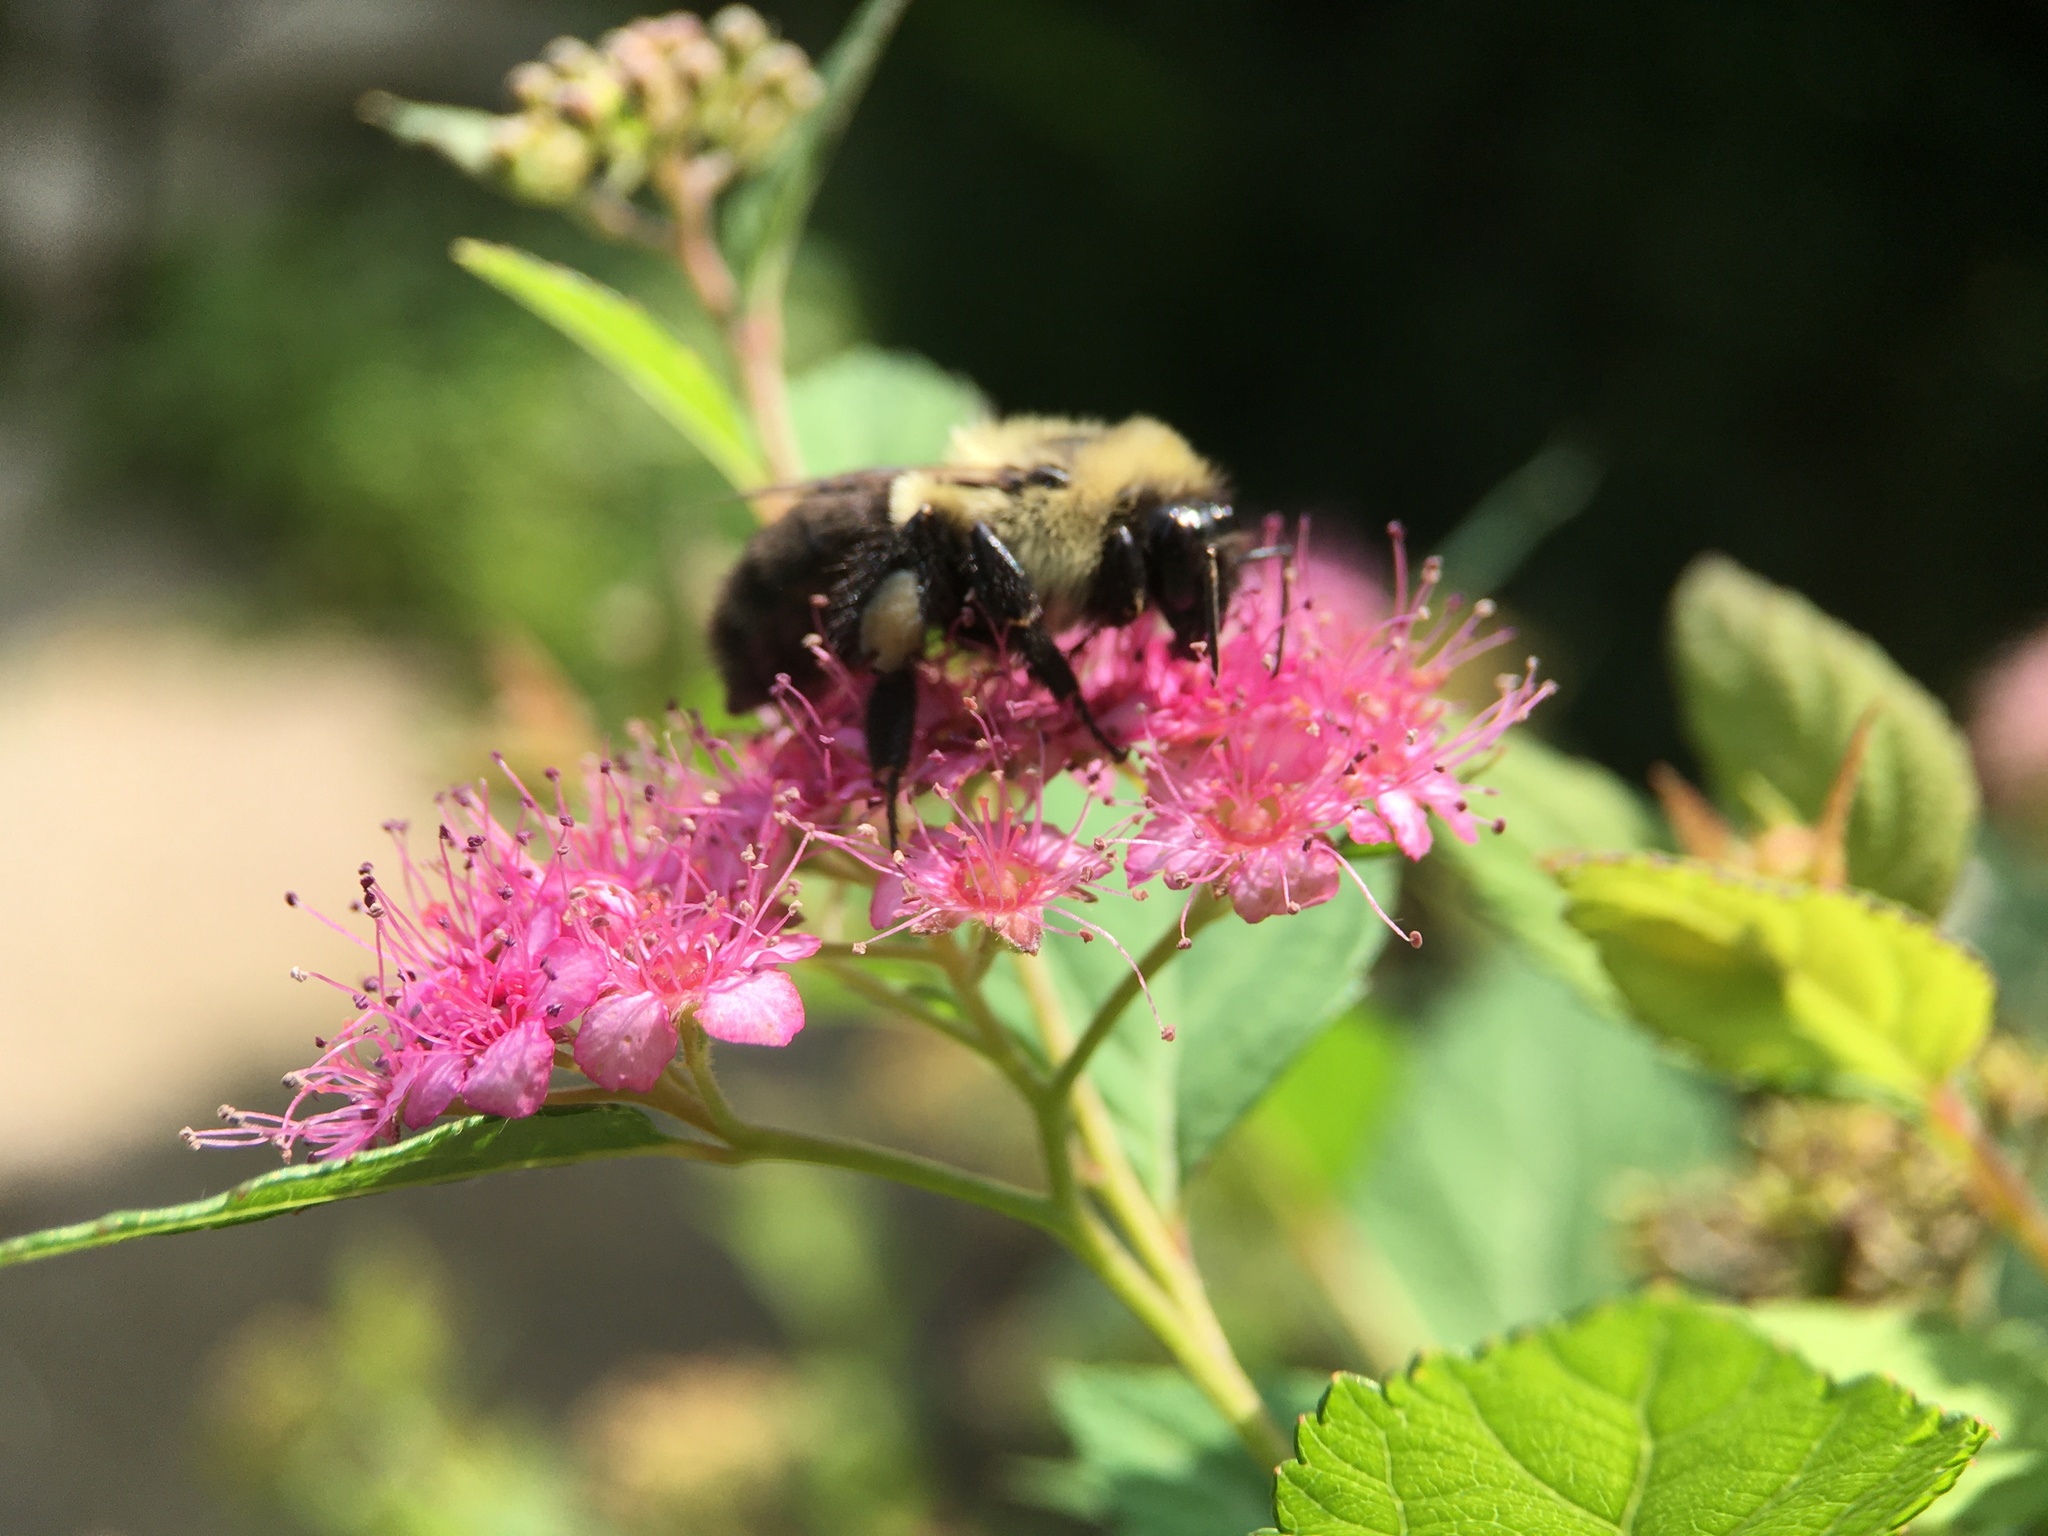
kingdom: Animalia
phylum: Arthropoda
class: Insecta
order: Hymenoptera
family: Apidae
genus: Bombus
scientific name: Bombus impatiens
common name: Common eastern bumble bee
